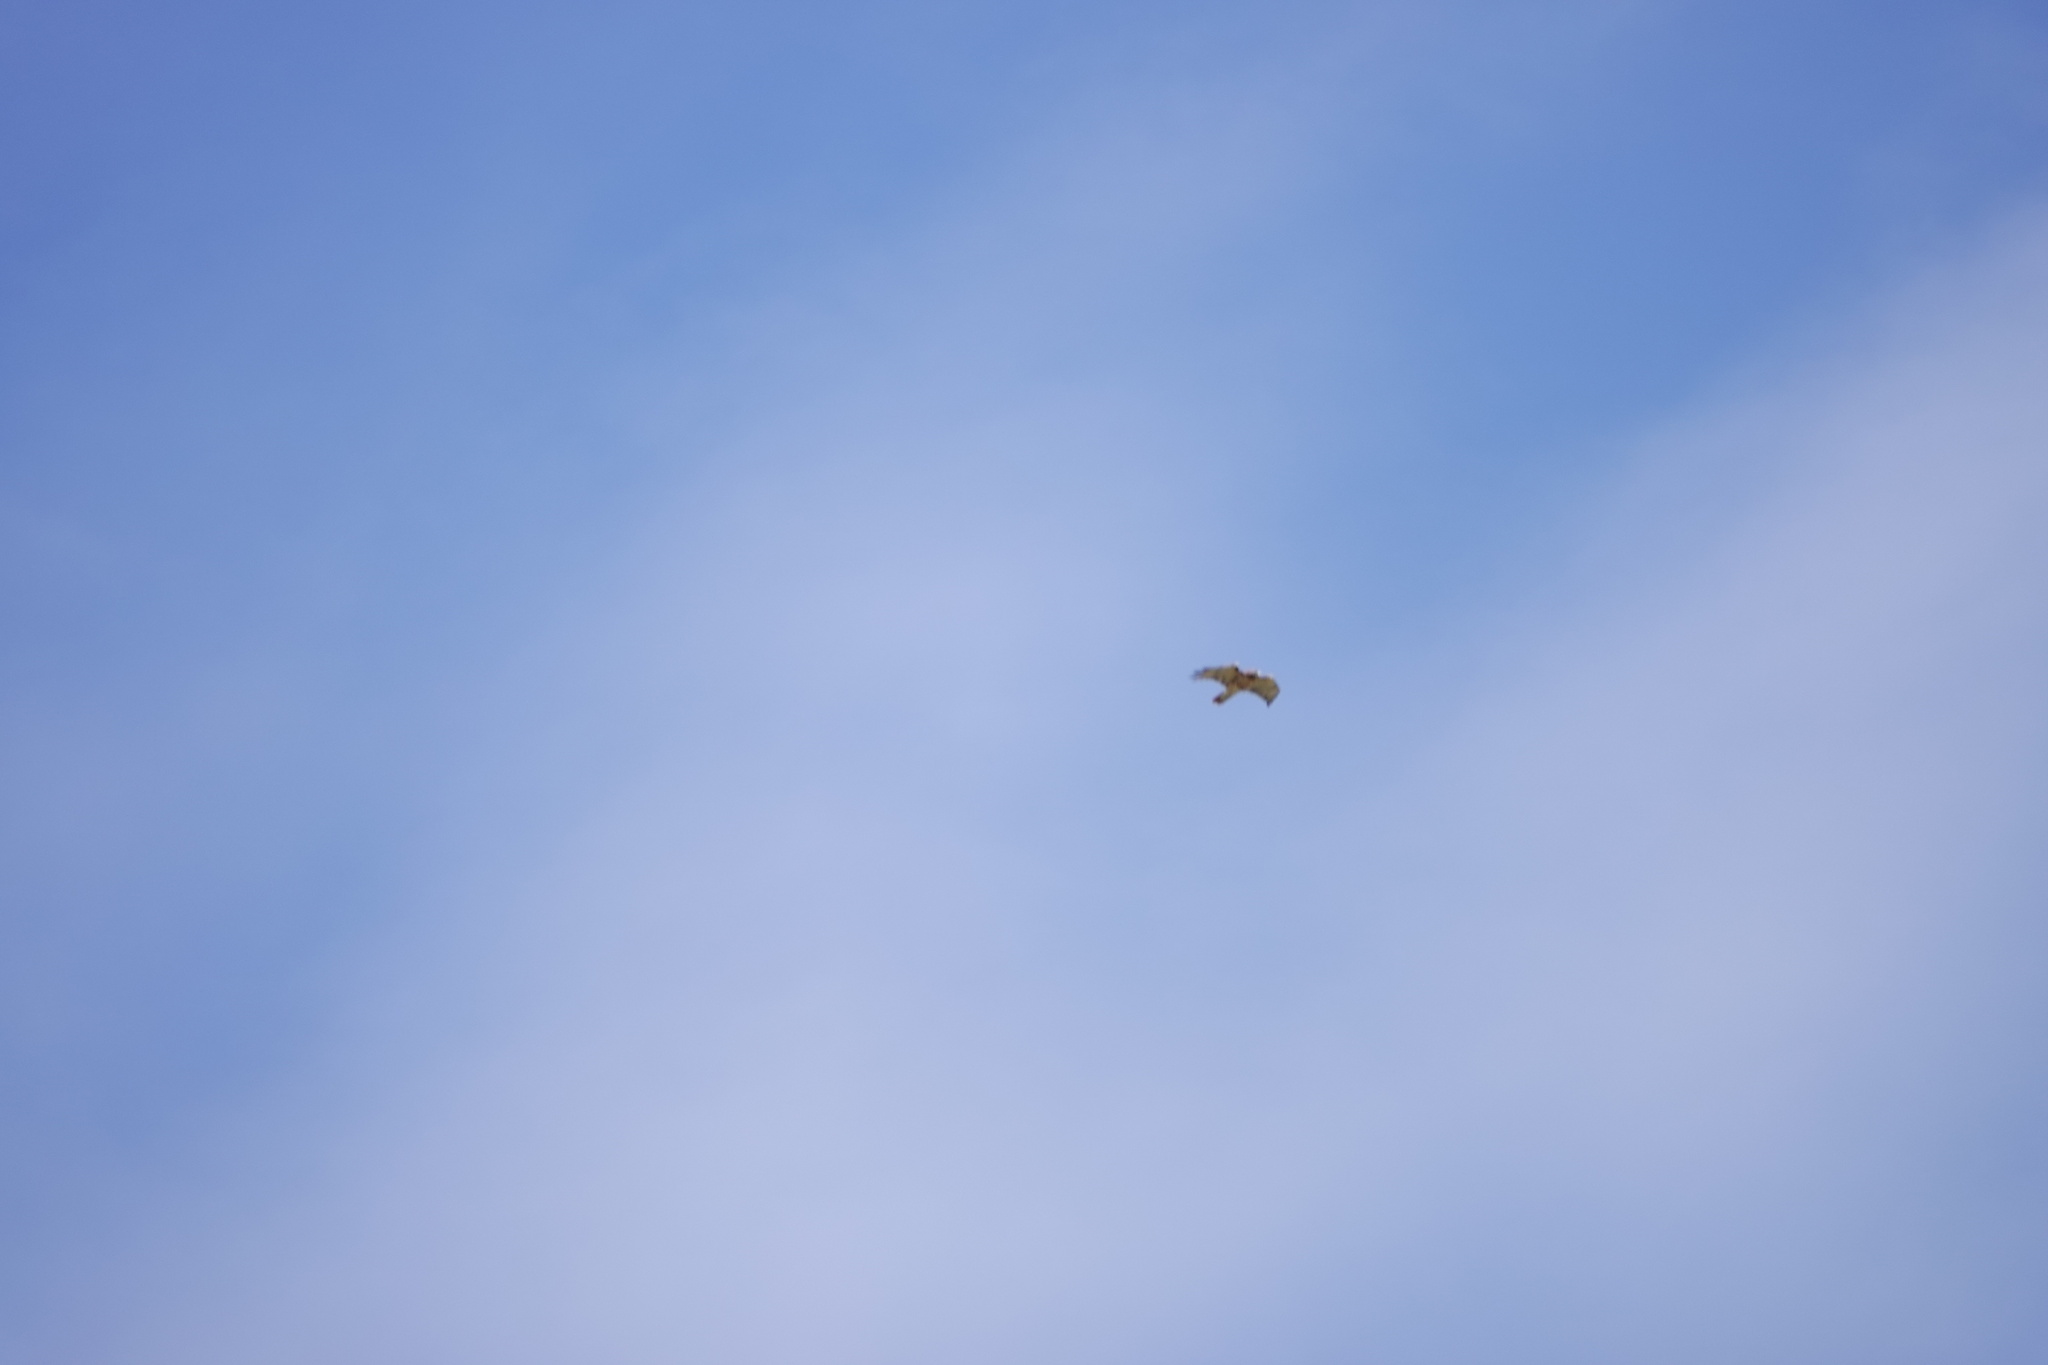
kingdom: Animalia
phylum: Chordata
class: Aves
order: Accipitriformes
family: Accipitridae
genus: Buteo
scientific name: Buteo jamaicensis
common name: Red-tailed hawk
